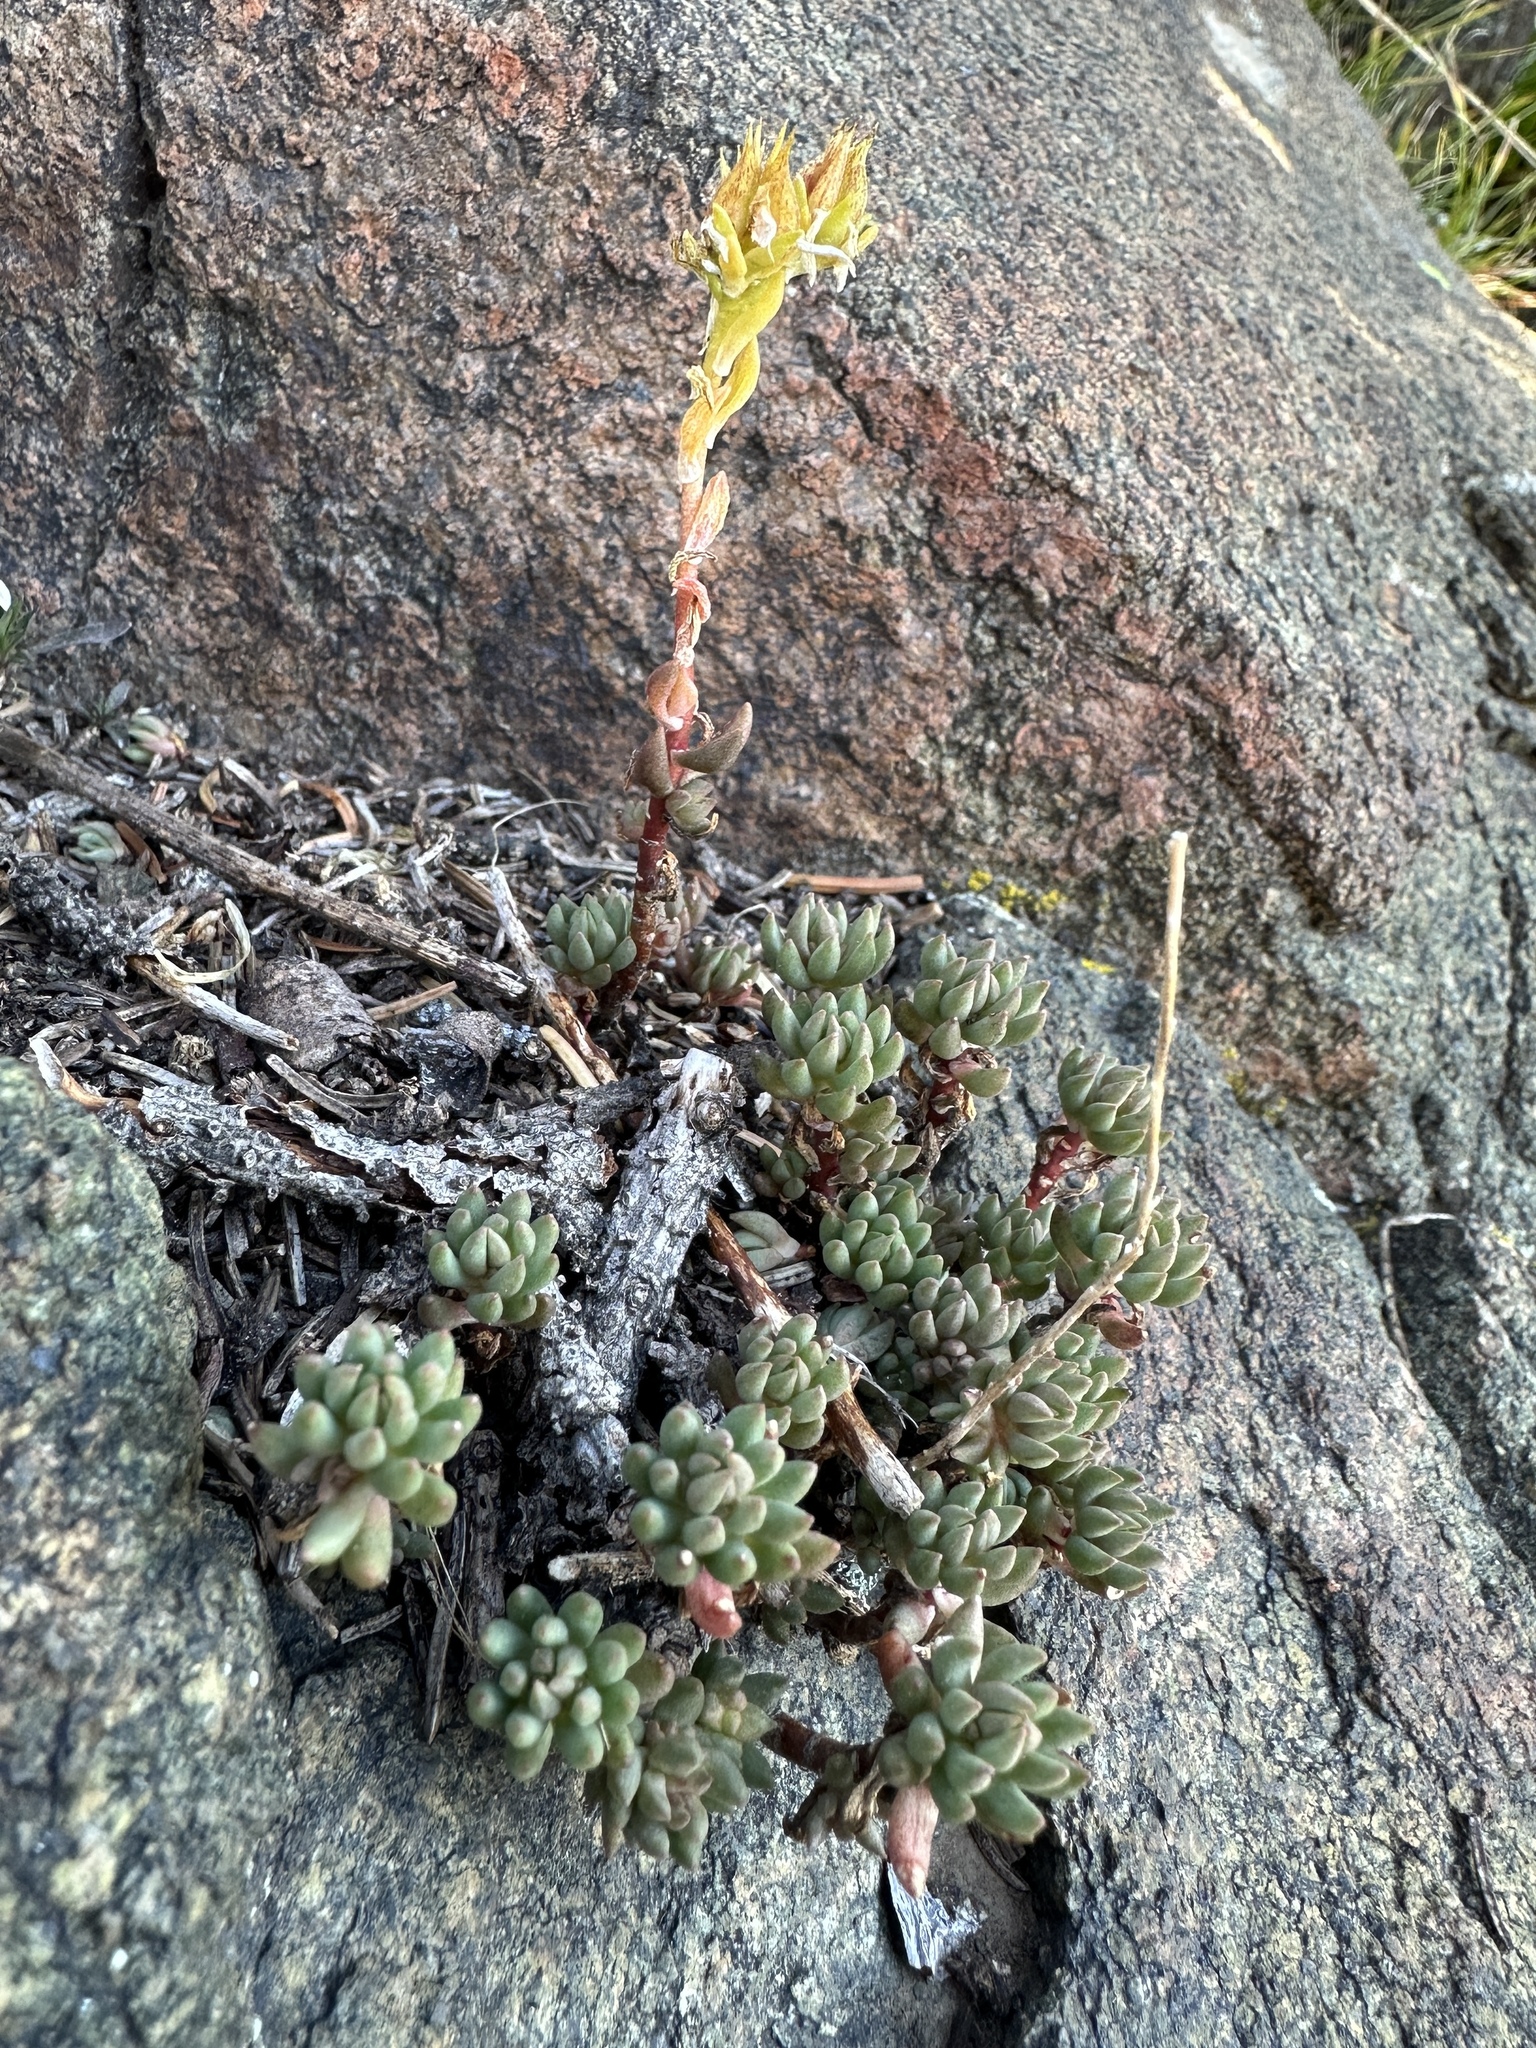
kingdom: Plantae
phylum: Tracheophyta
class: Magnoliopsida
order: Saxifragales
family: Crassulaceae
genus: Sedum
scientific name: Sedum lanceolatum
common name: Common stonecrop
